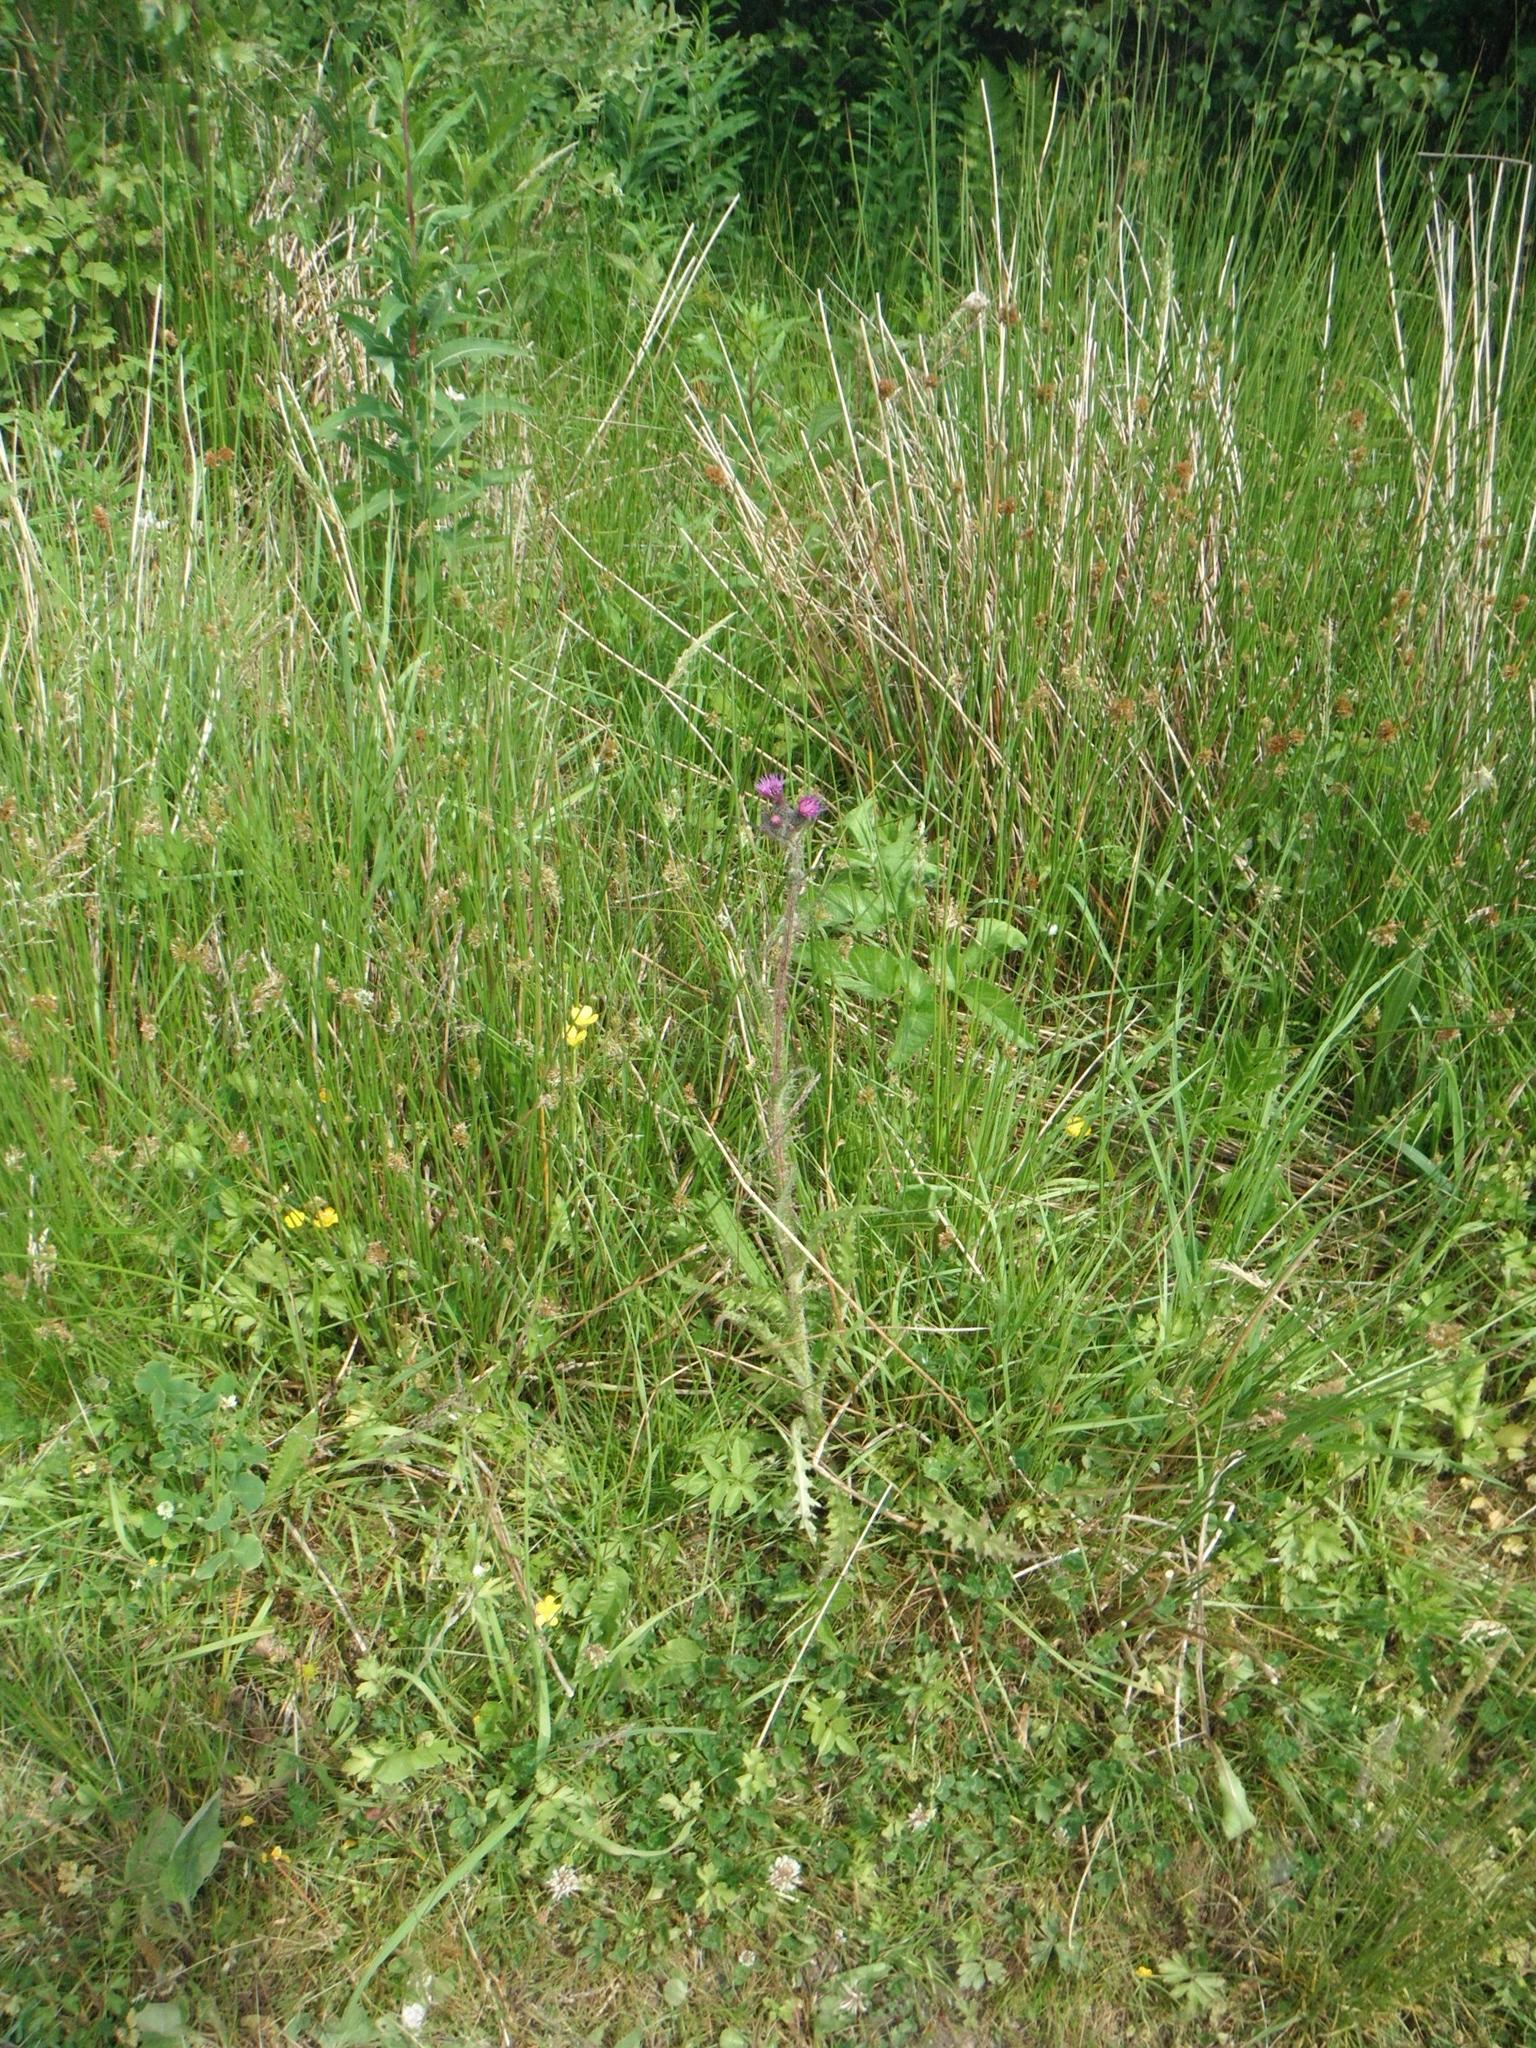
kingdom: Plantae
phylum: Tracheophyta
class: Magnoliopsida
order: Asterales
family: Asteraceae
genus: Cirsium
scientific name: Cirsium palustre
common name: Marsh thistle
